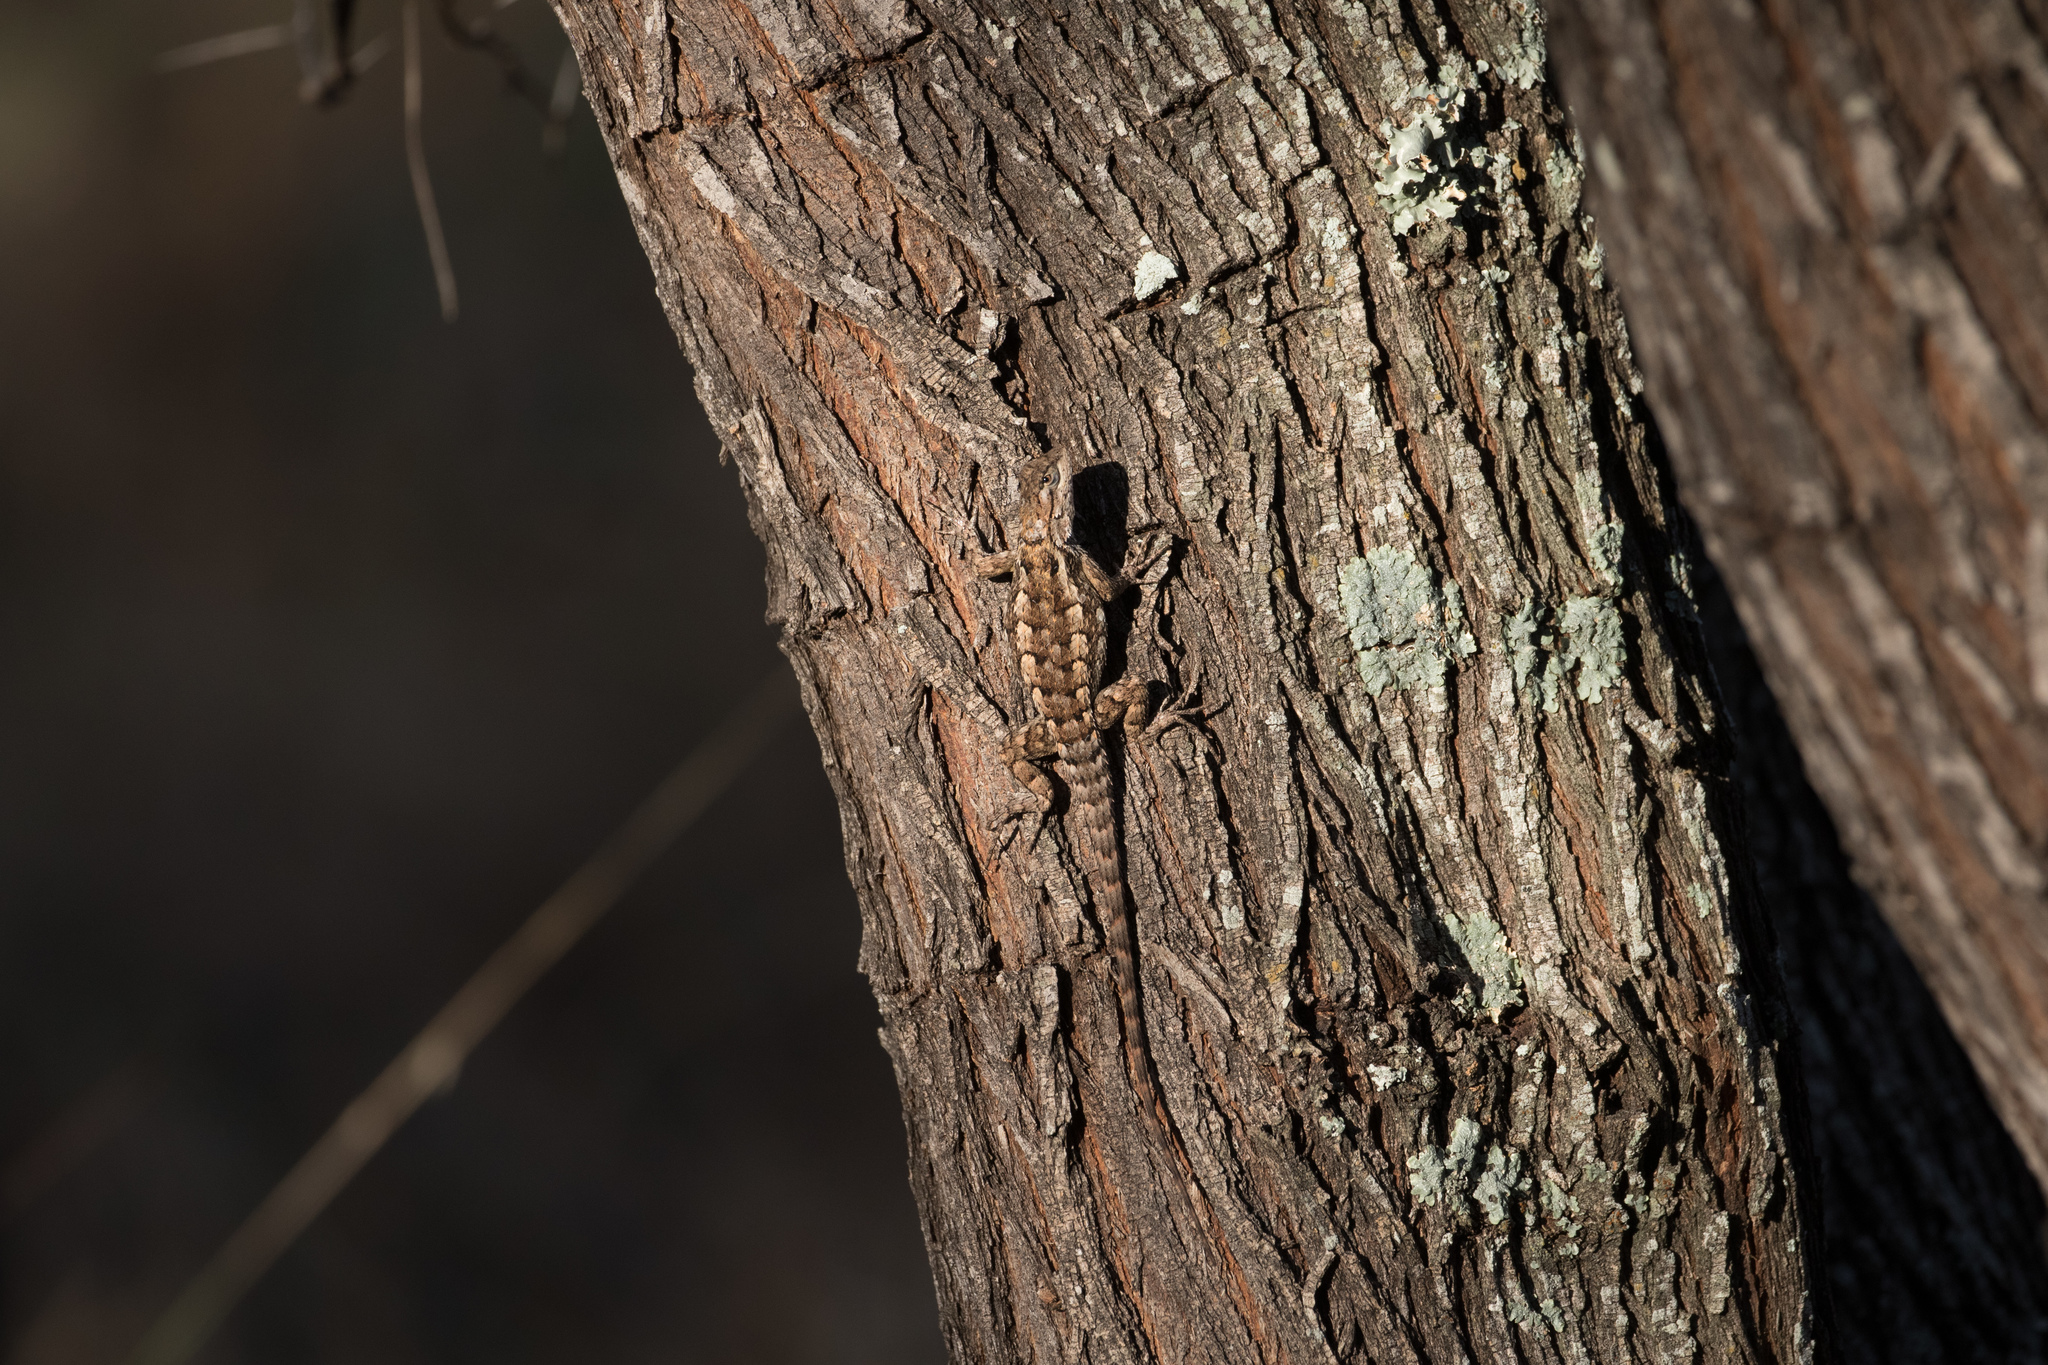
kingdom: Animalia
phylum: Chordata
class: Squamata
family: Phrynosomatidae
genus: Sceloporus
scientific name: Sceloporus olivaceus
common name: Texas spiny lizard
